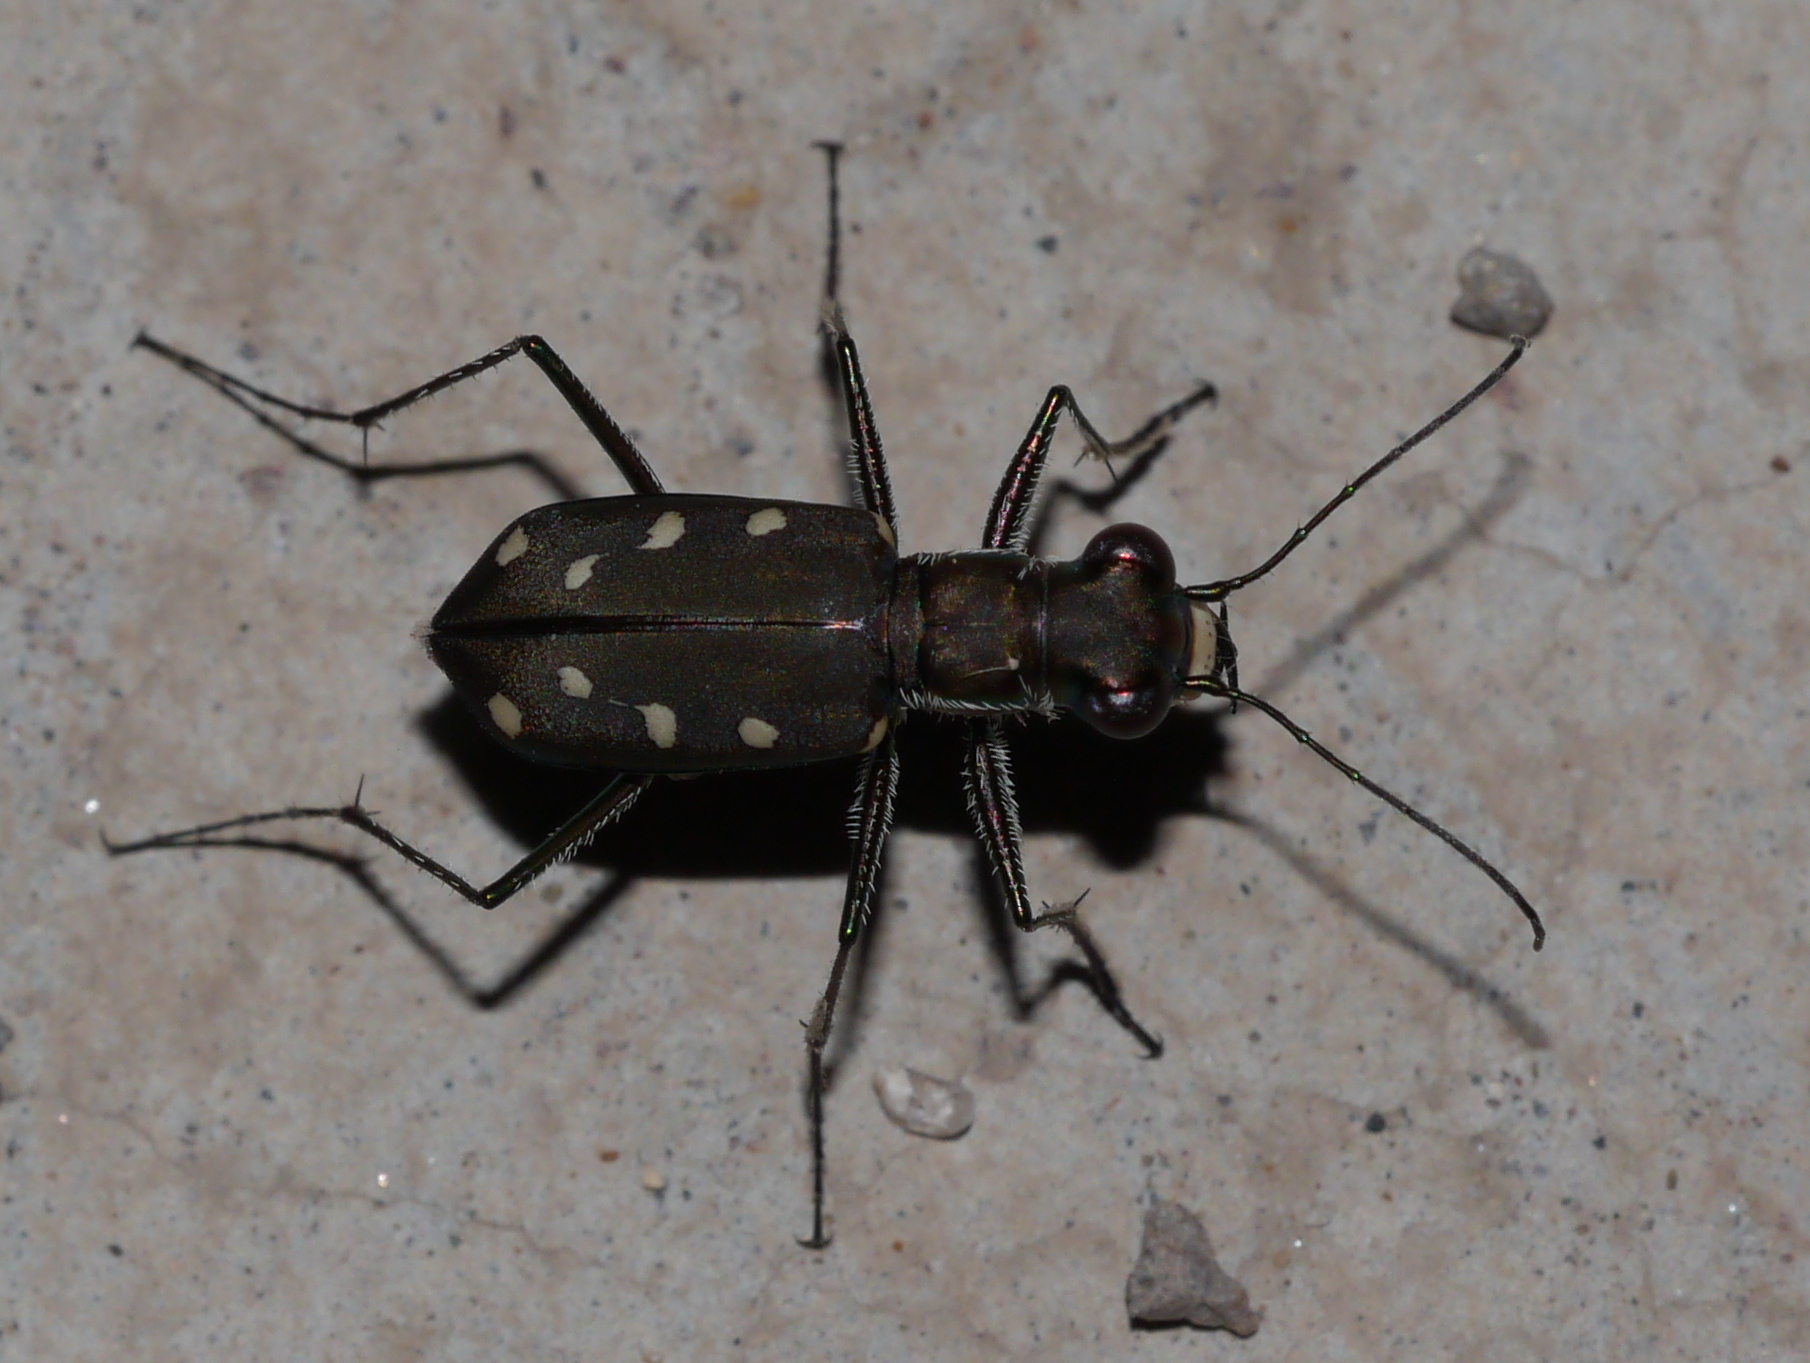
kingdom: Animalia
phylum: Arthropoda
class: Insecta
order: Coleoptera
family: Carabidae
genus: Cicindela
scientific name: Cicindela ocellata
